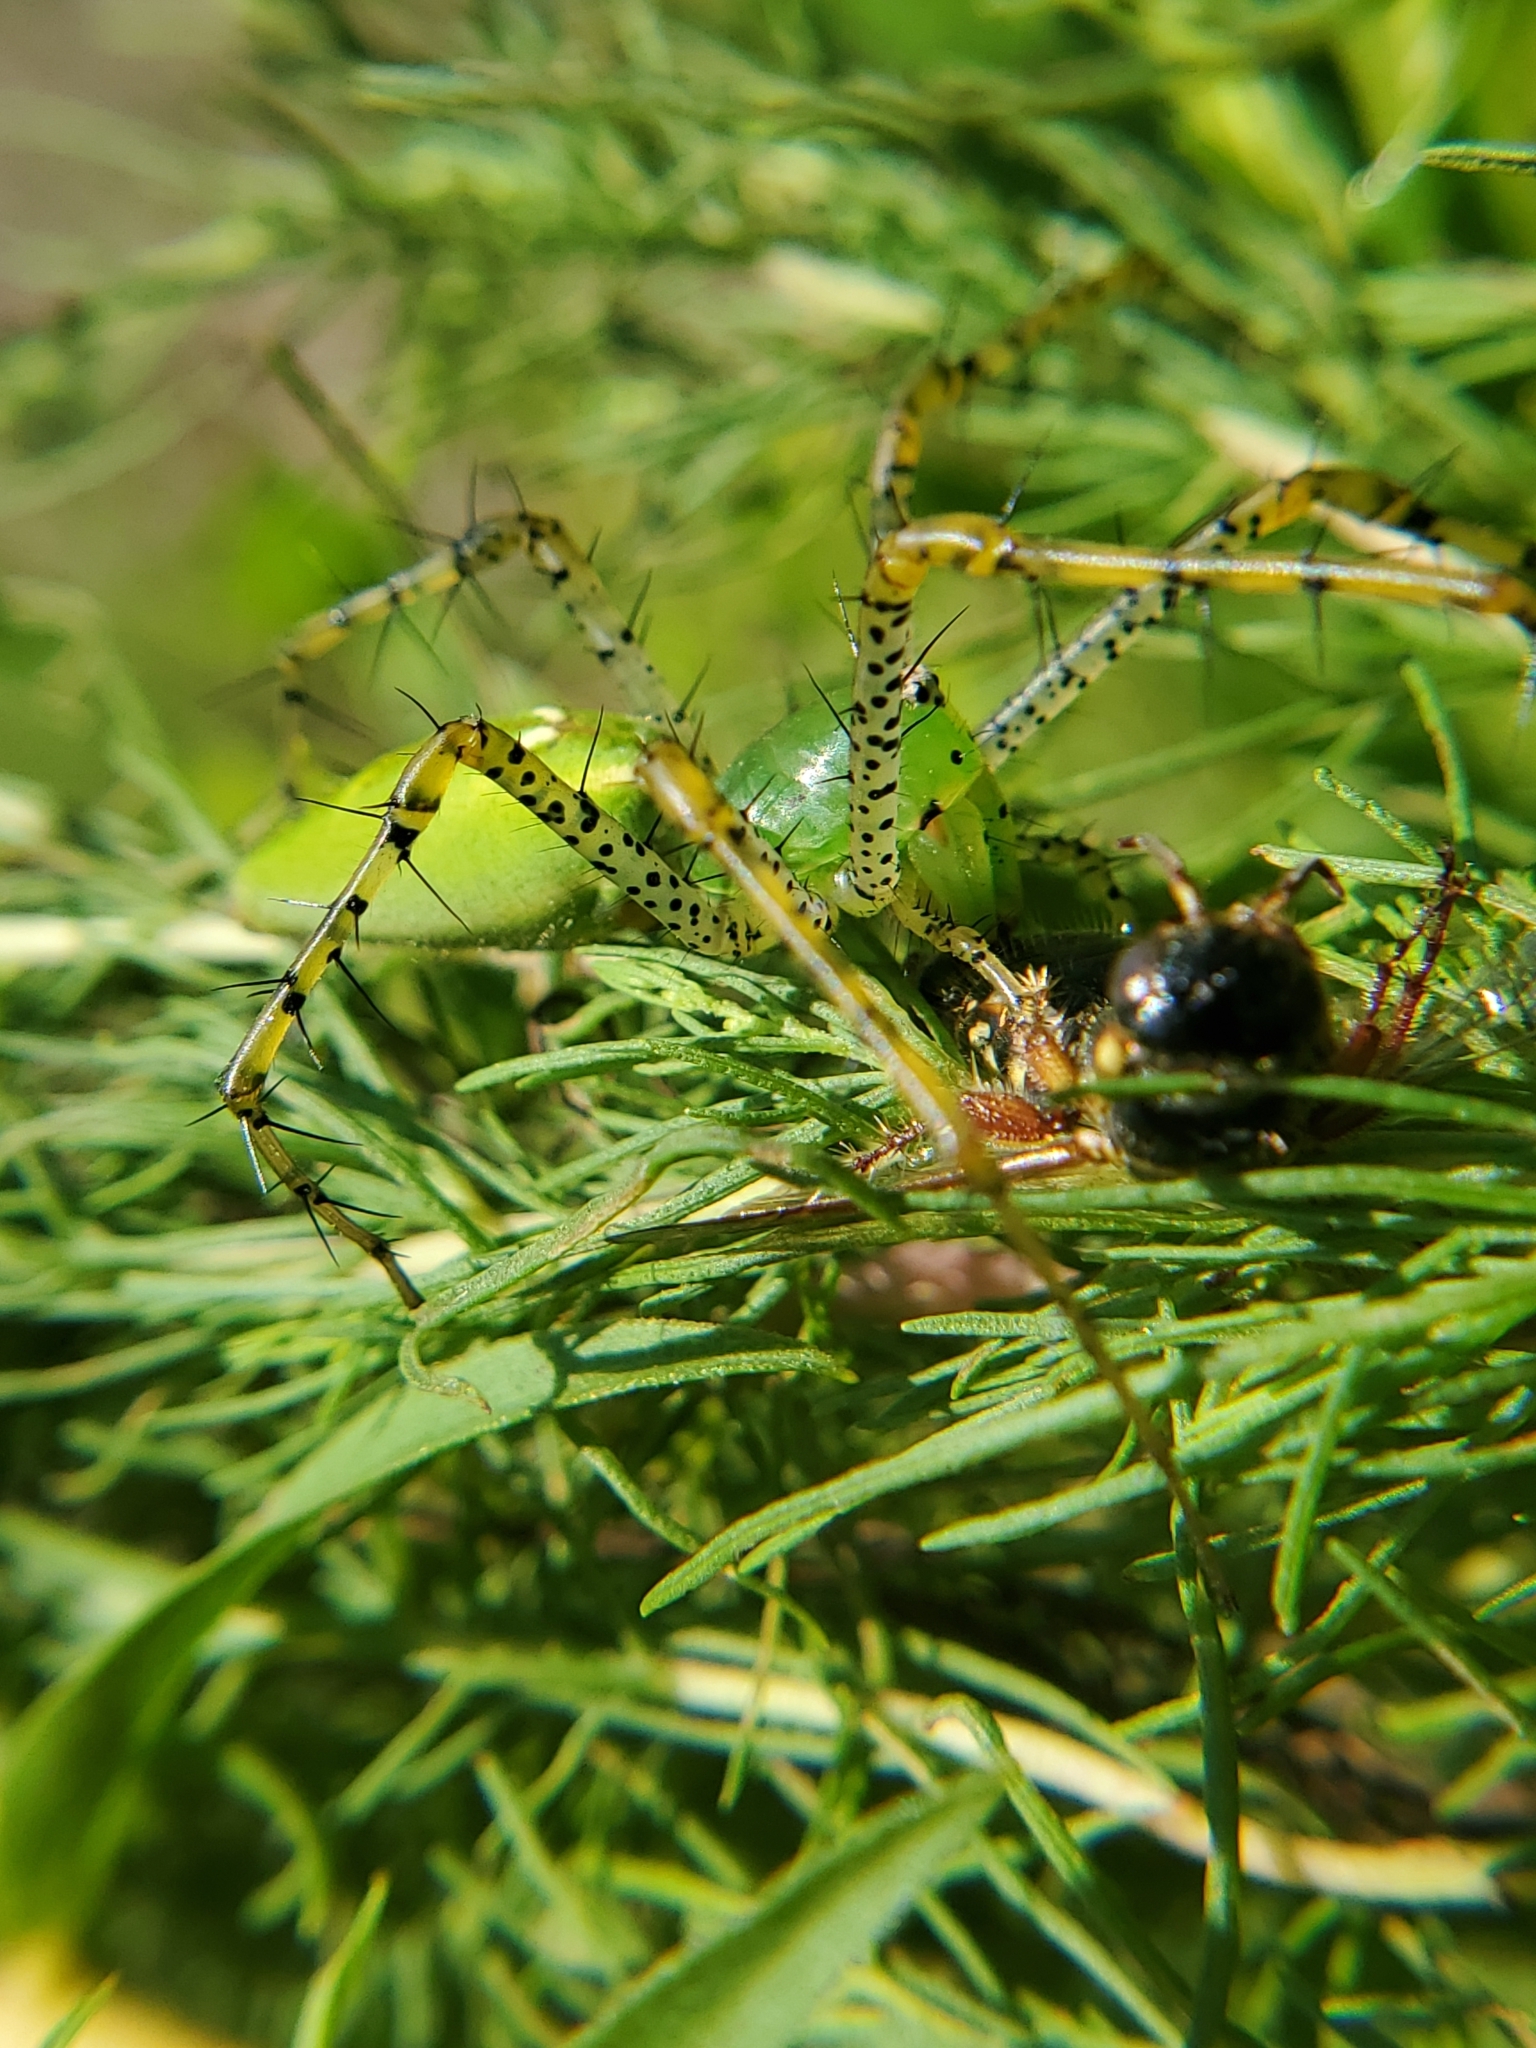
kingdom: Animalia
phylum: Arthropoda
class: Arachnida
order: Araneae
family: Oxyopidae
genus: Peucetia
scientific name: Peucetia viridans
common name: Lynx spiders
